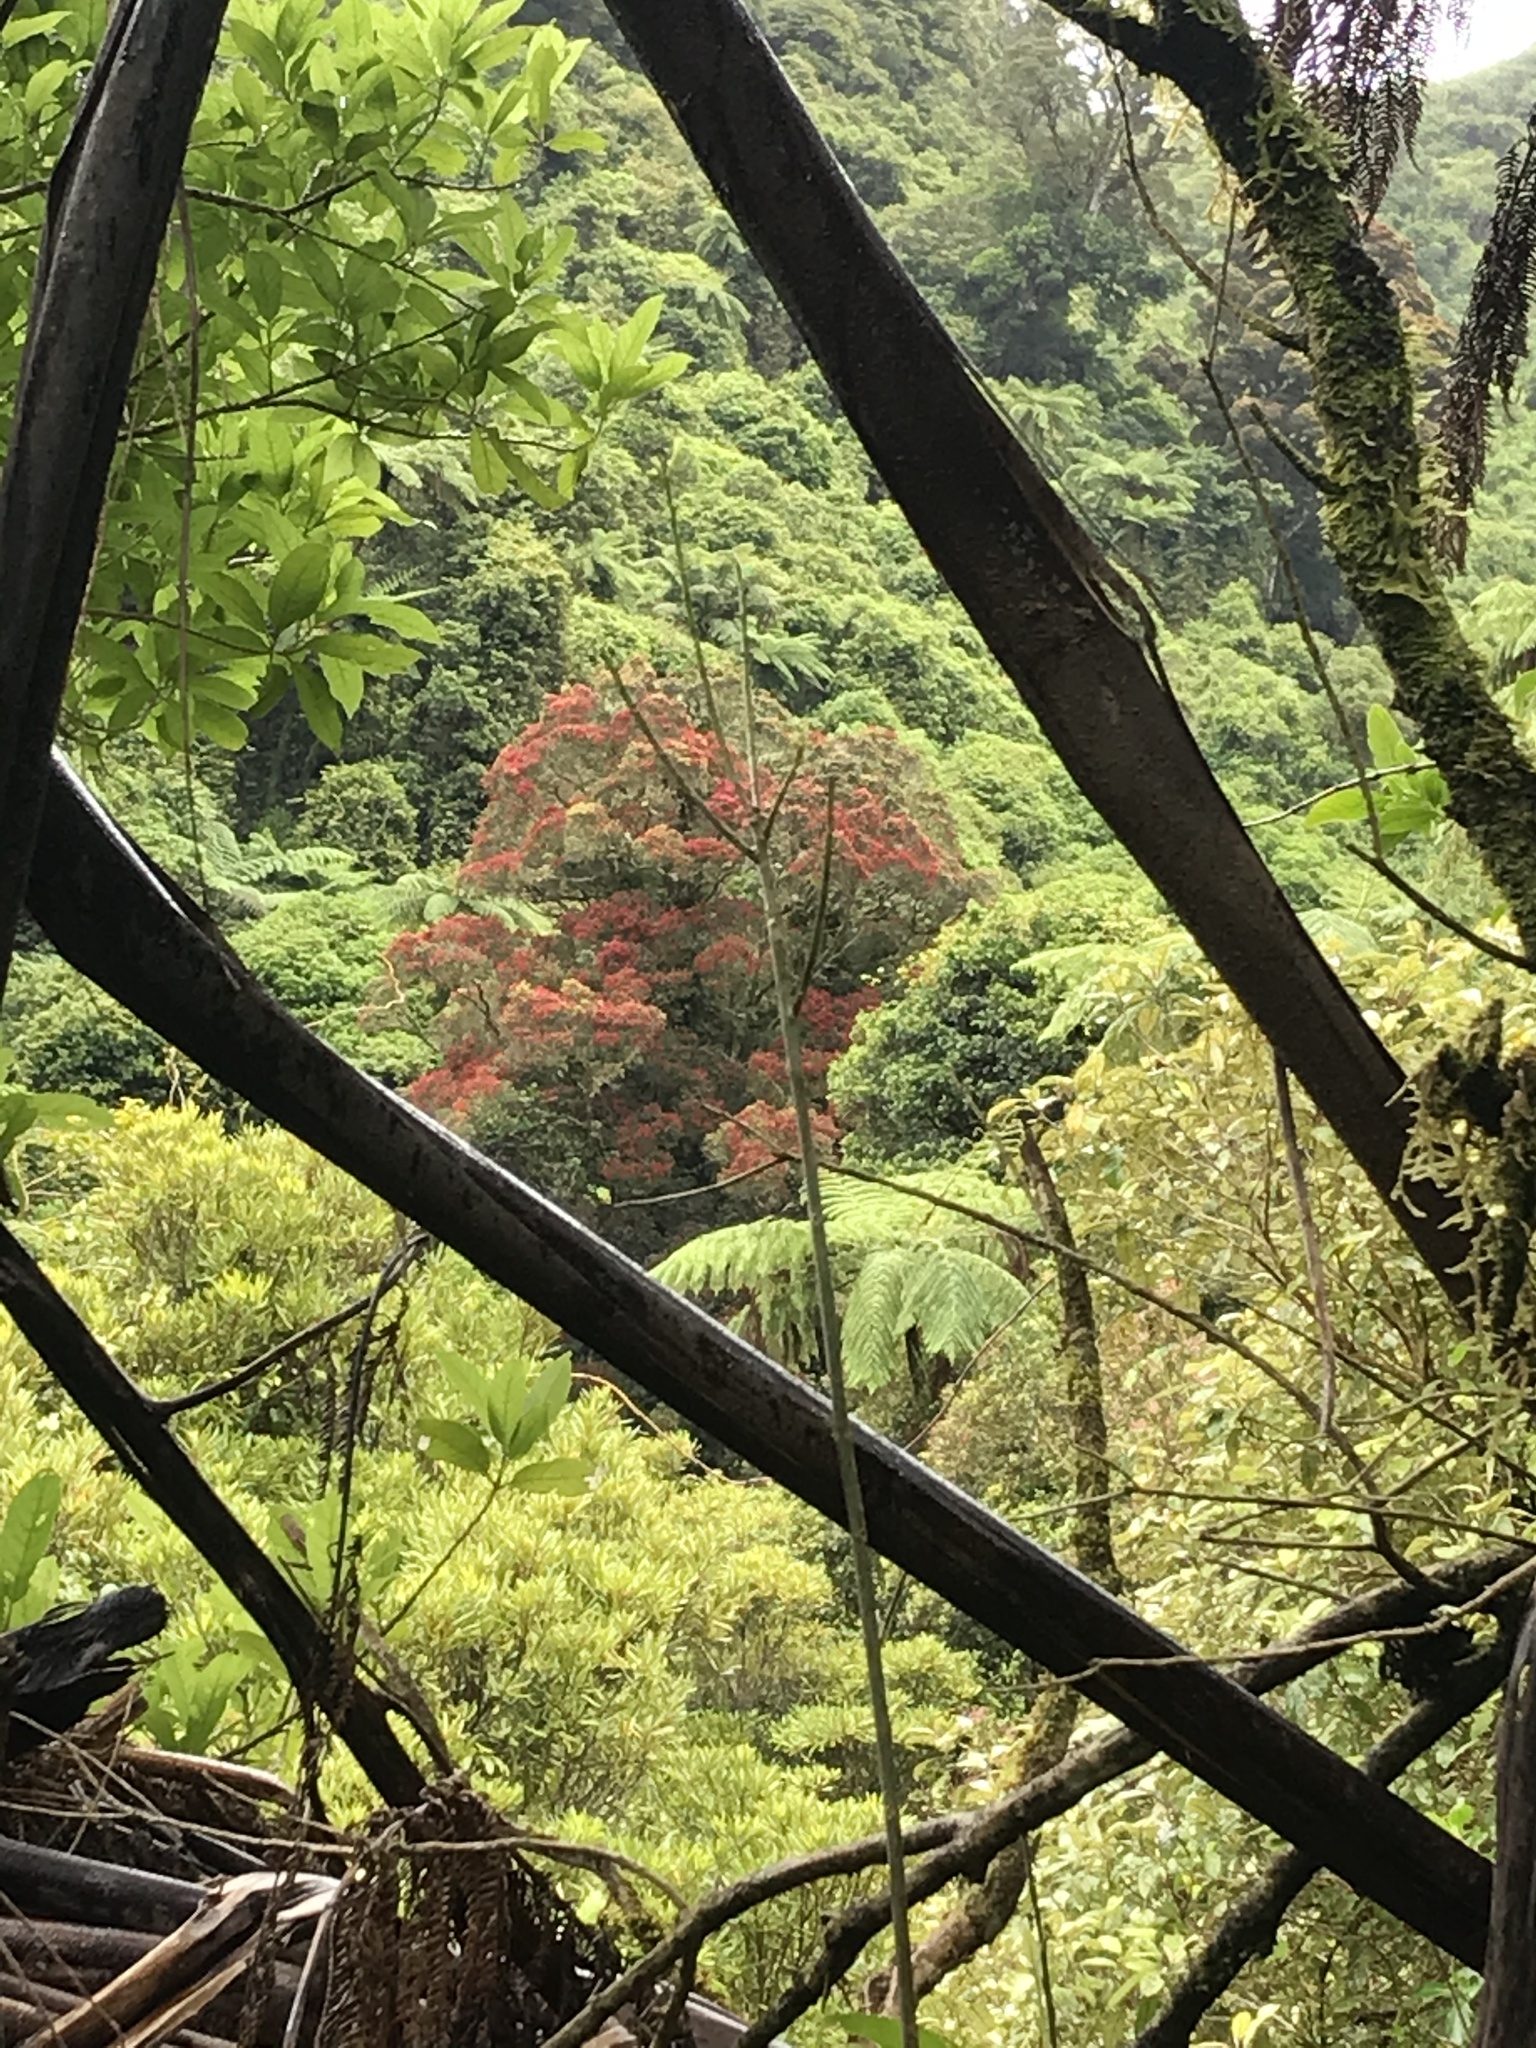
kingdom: Plantae
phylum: Tracheophyta
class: Magnoliopsida
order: Myrtales
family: Myrtaceae
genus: Metrosideros
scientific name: Metrosideros robusta
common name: Northern rata
